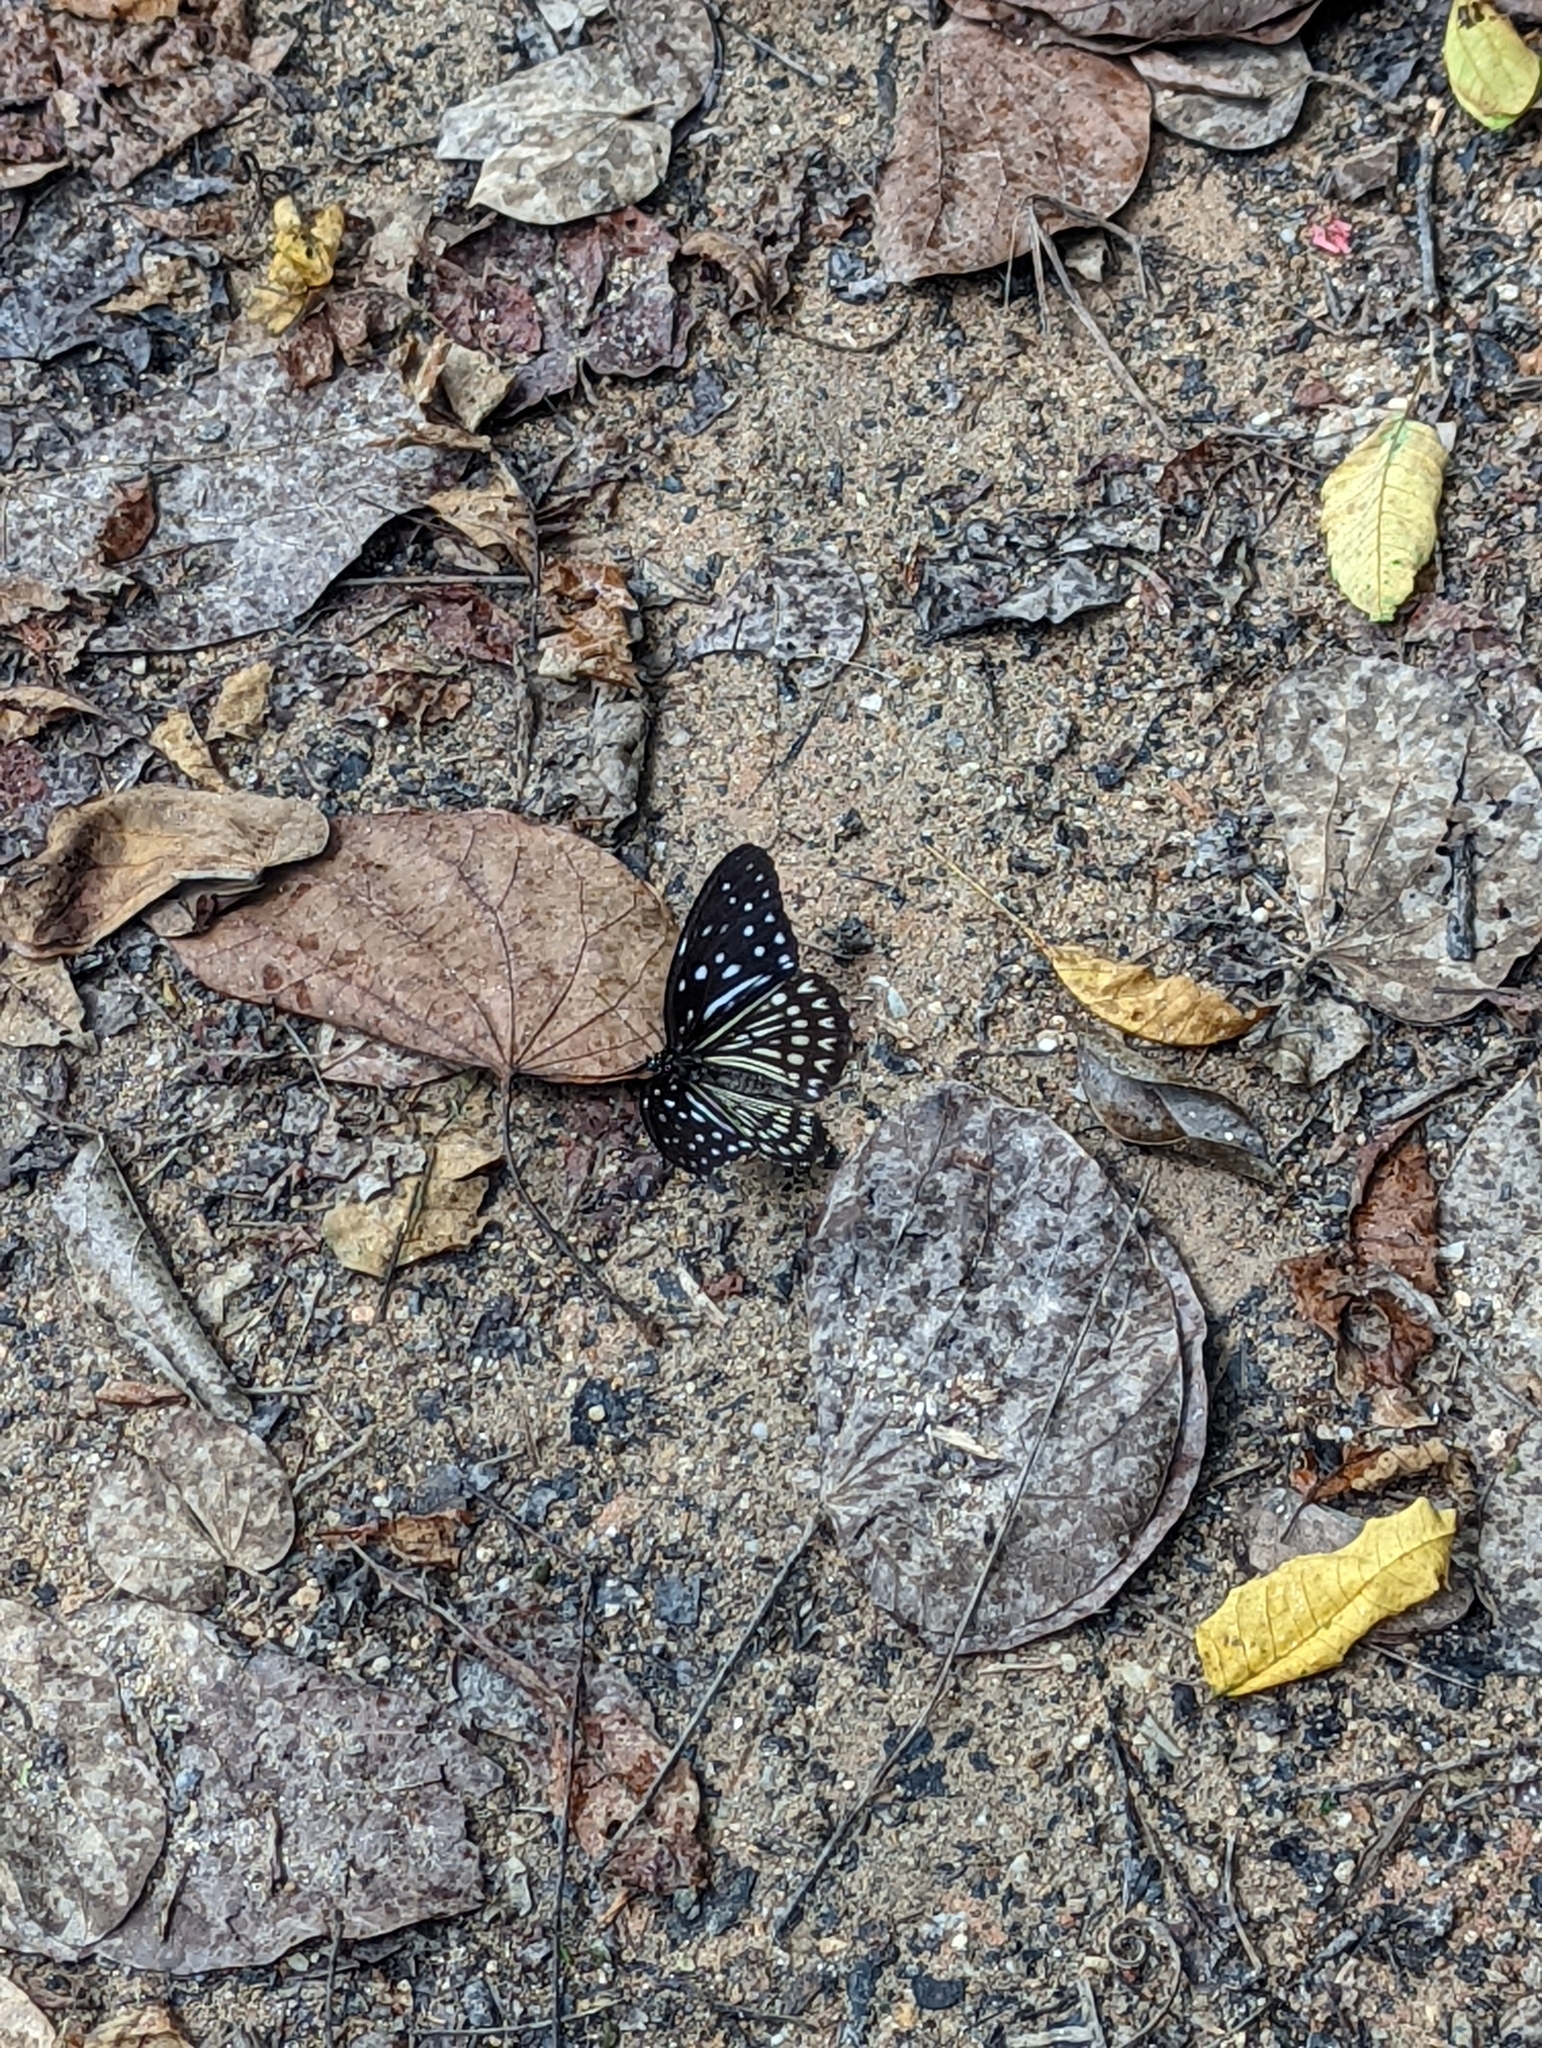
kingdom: Animalia
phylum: Arthropoda
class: Insecta
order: Lepidoptera
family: Nymphalidae
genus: Penthema
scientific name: Penthema darlisa
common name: Three-coloured kaiser
